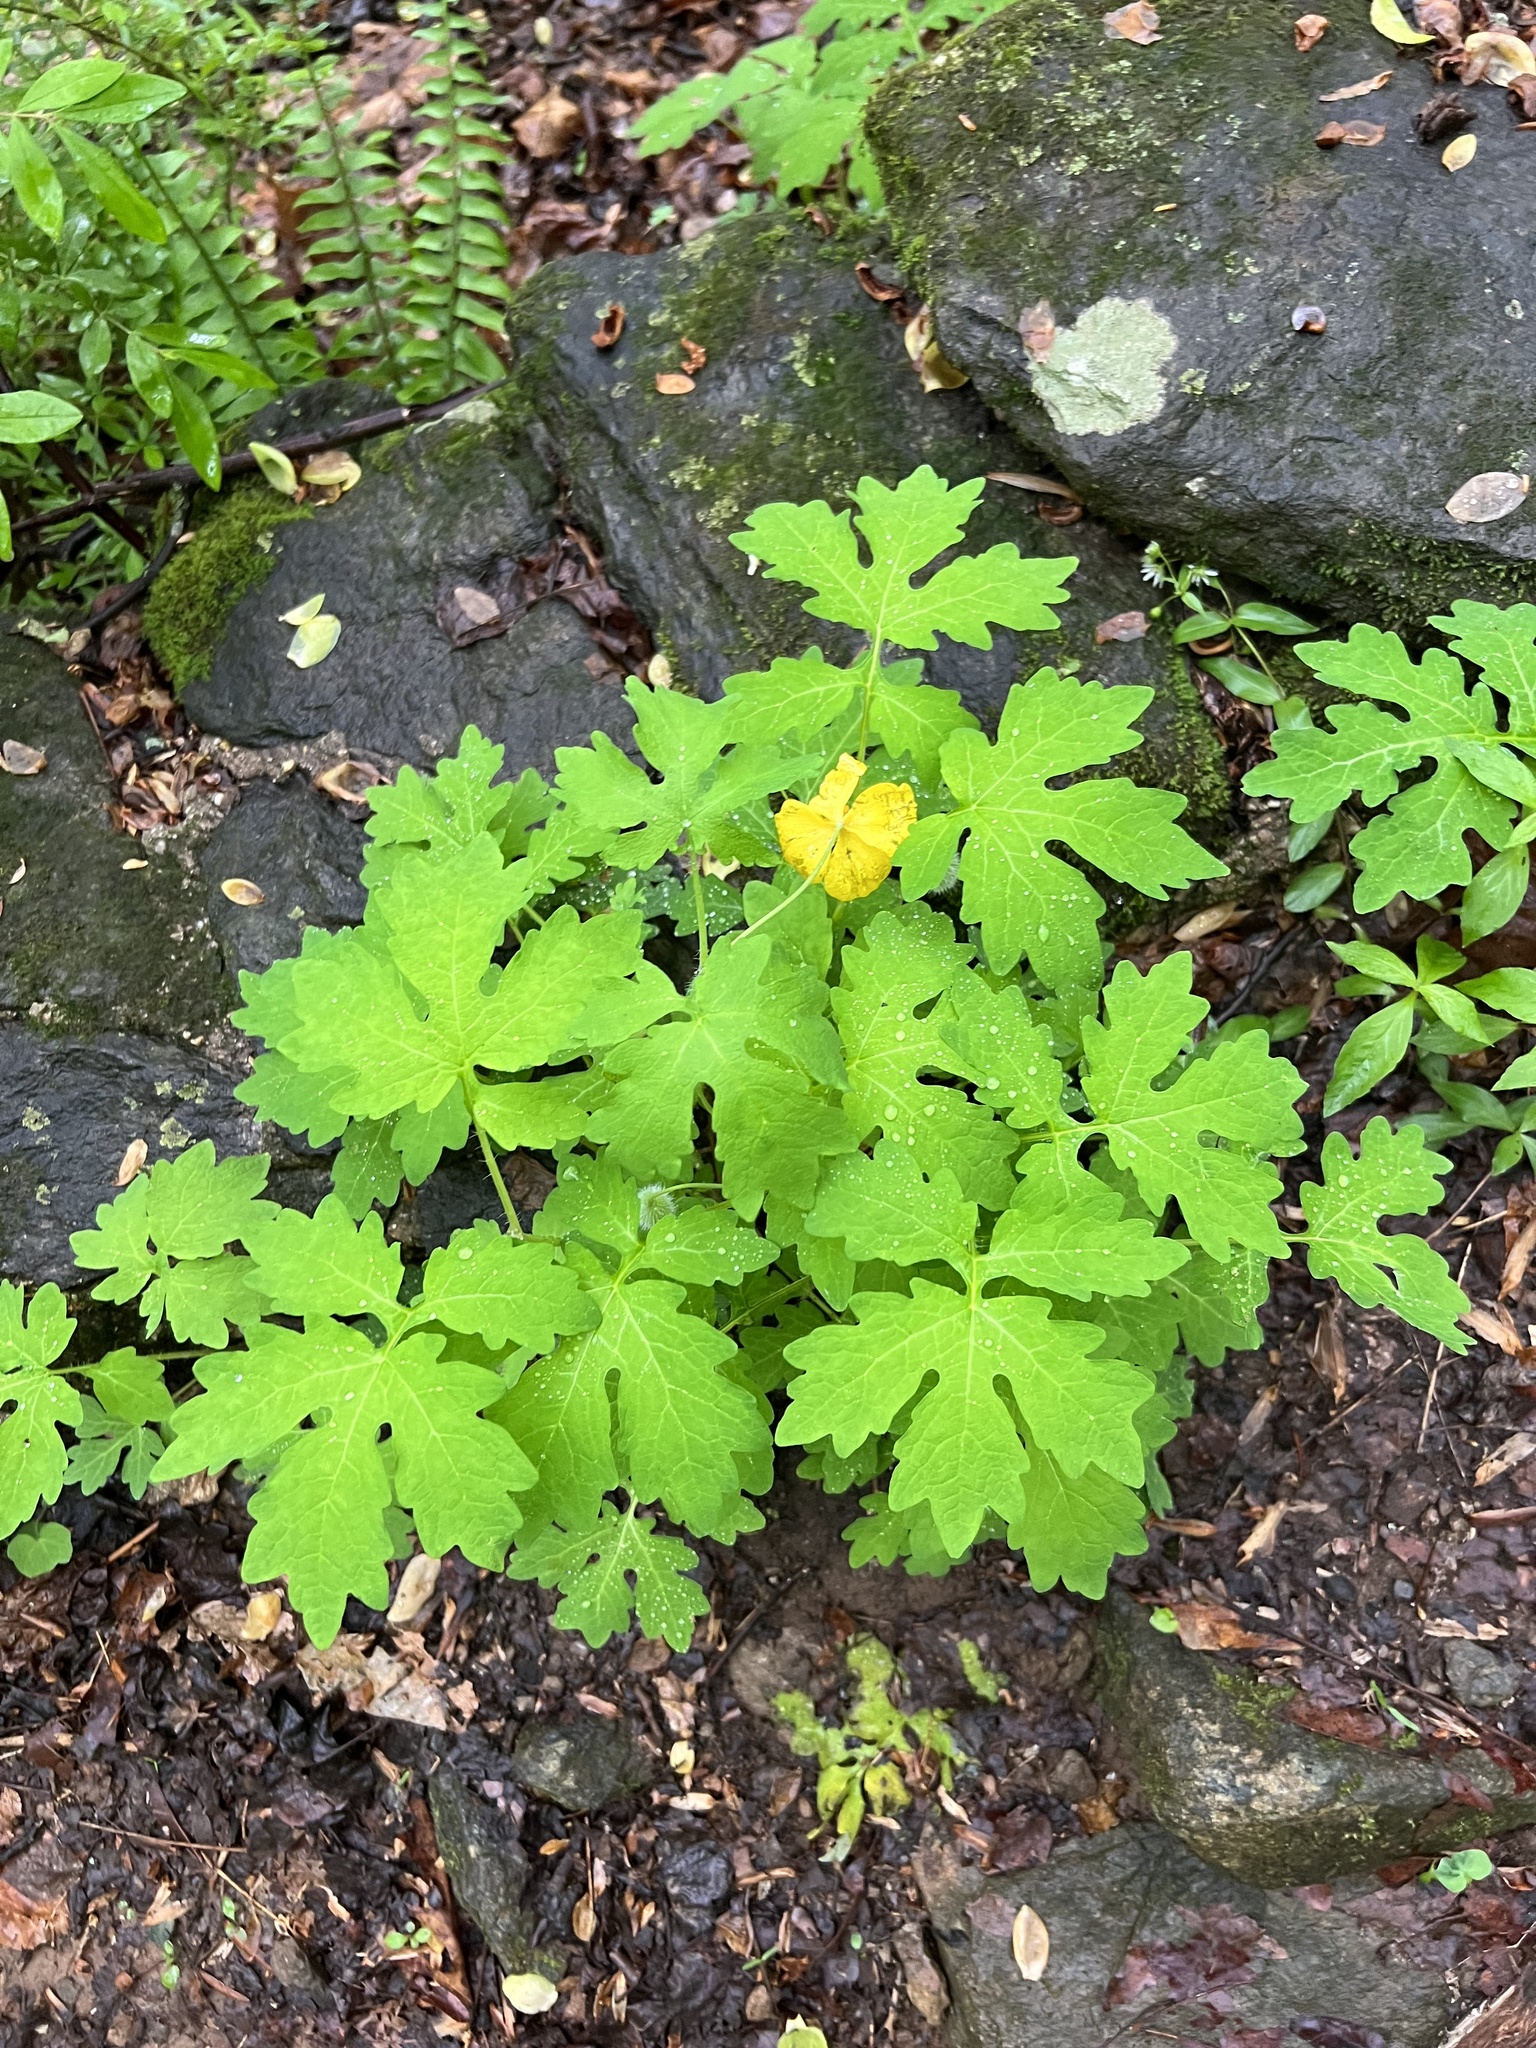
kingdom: Plantae
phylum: Tracheophyta
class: Magnoliopsida
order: Ranunculales
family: Papaveraceae
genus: Stylophorum
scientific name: Stylophorum diphyllum
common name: Celandine poppy
